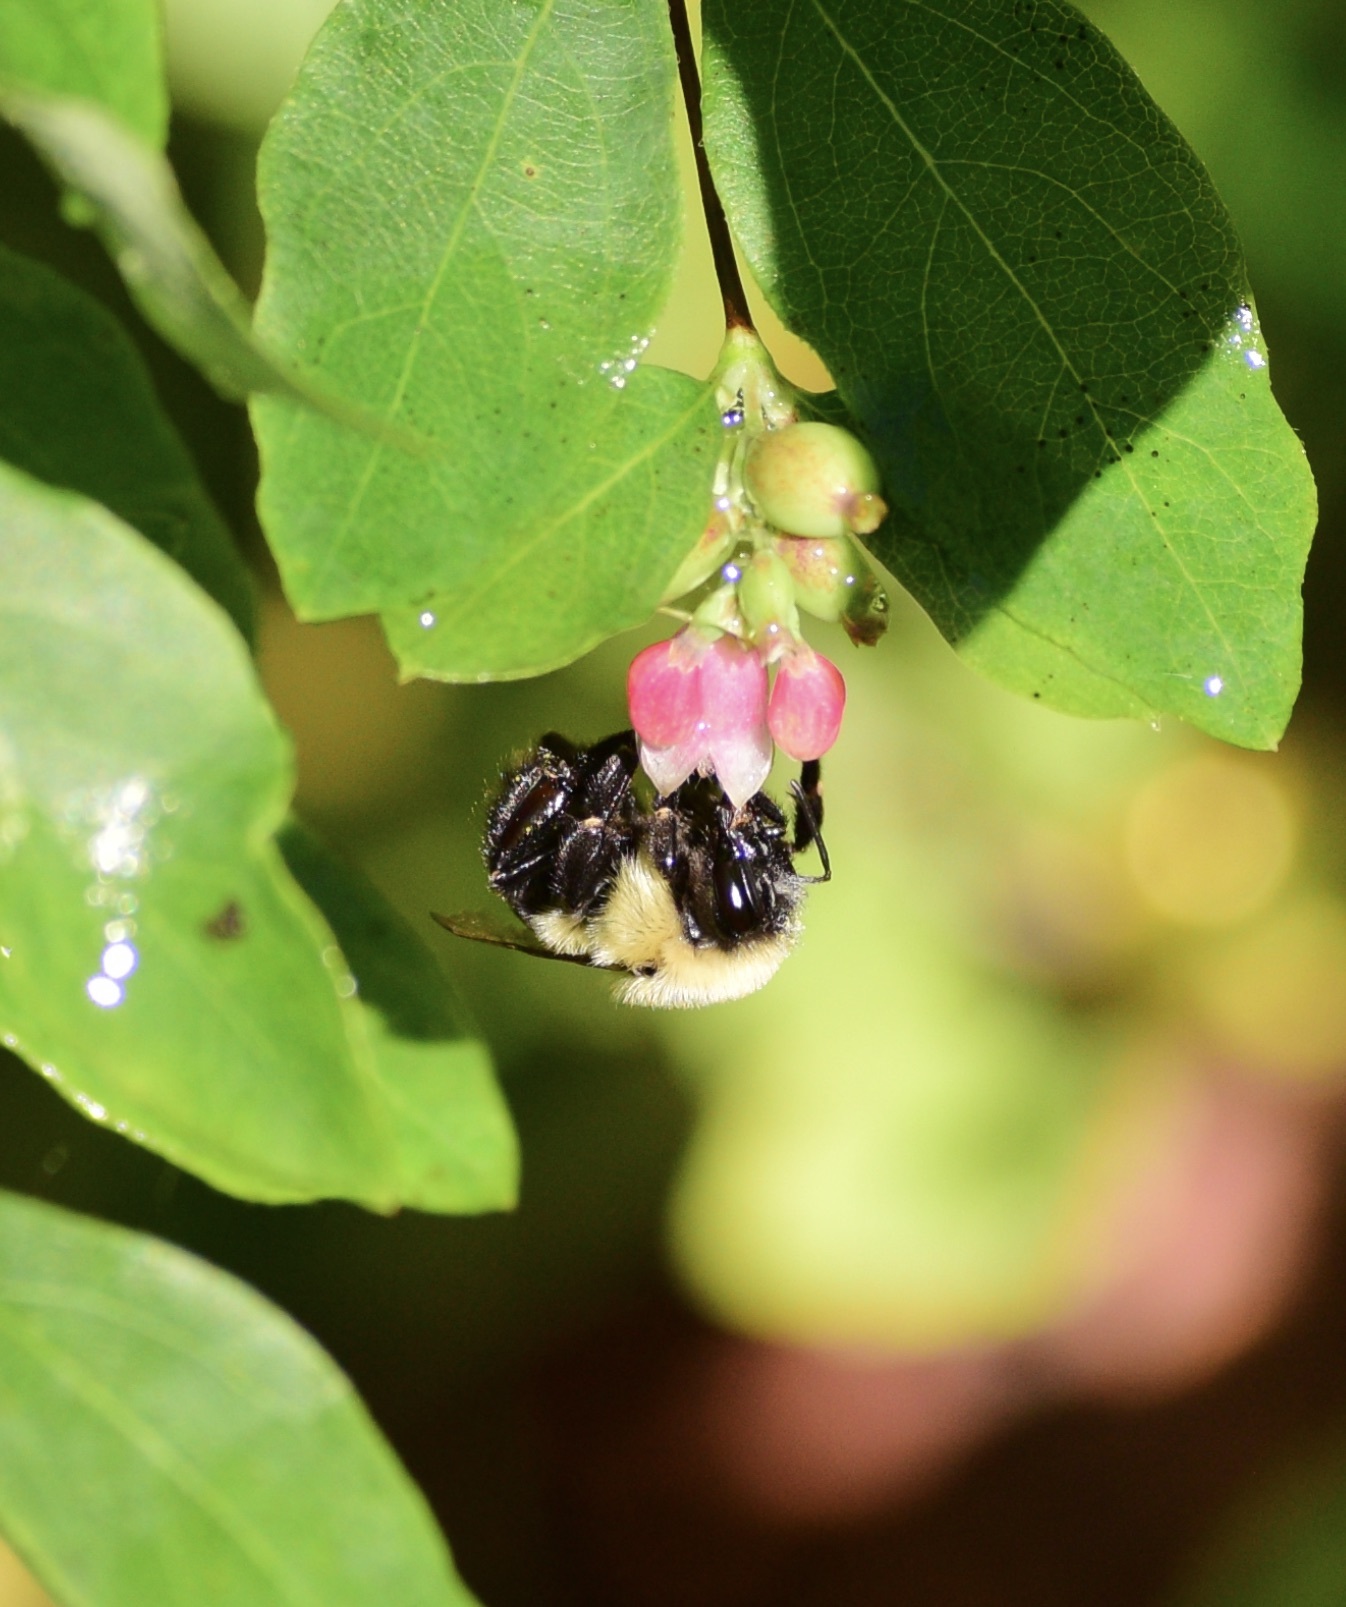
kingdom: Animalia
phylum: Arthropoda
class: Insecta
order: Hymenoptera
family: Apidae
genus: Bombus
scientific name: Bombus impatiens
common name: Common eastern bumble bee
